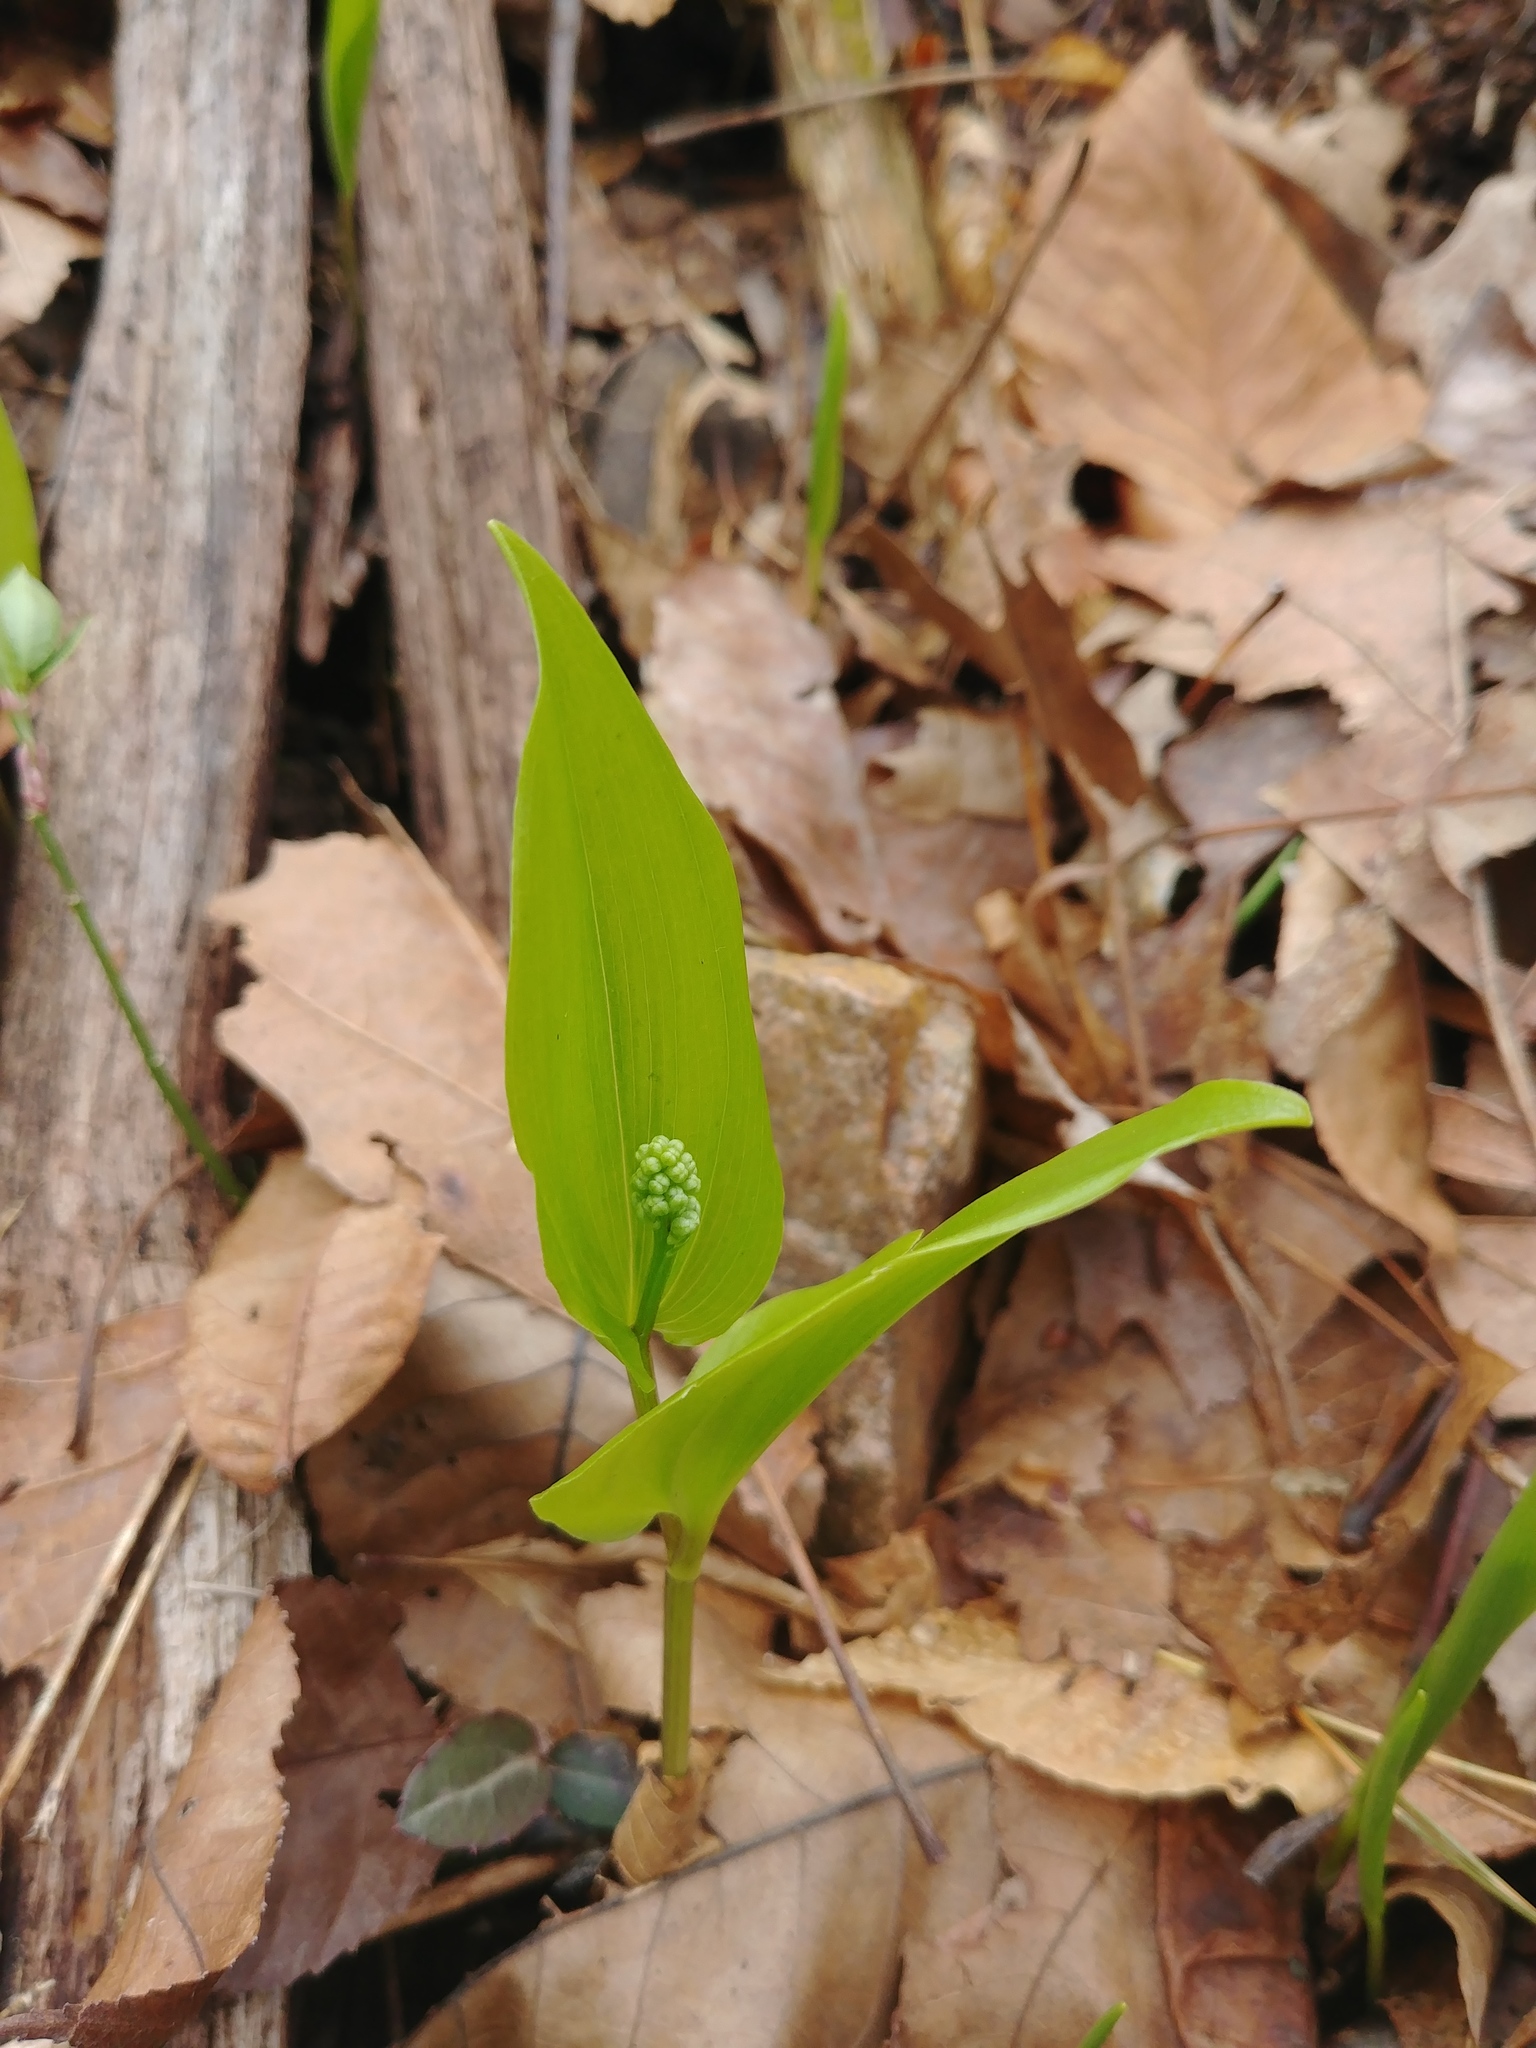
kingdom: Plantae
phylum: Tracheophyta
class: Liliopsida
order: Asparagales
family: Asparagaceae
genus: Maianthemum
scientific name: Maianthemum canadense
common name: False lily-of-the-valley
